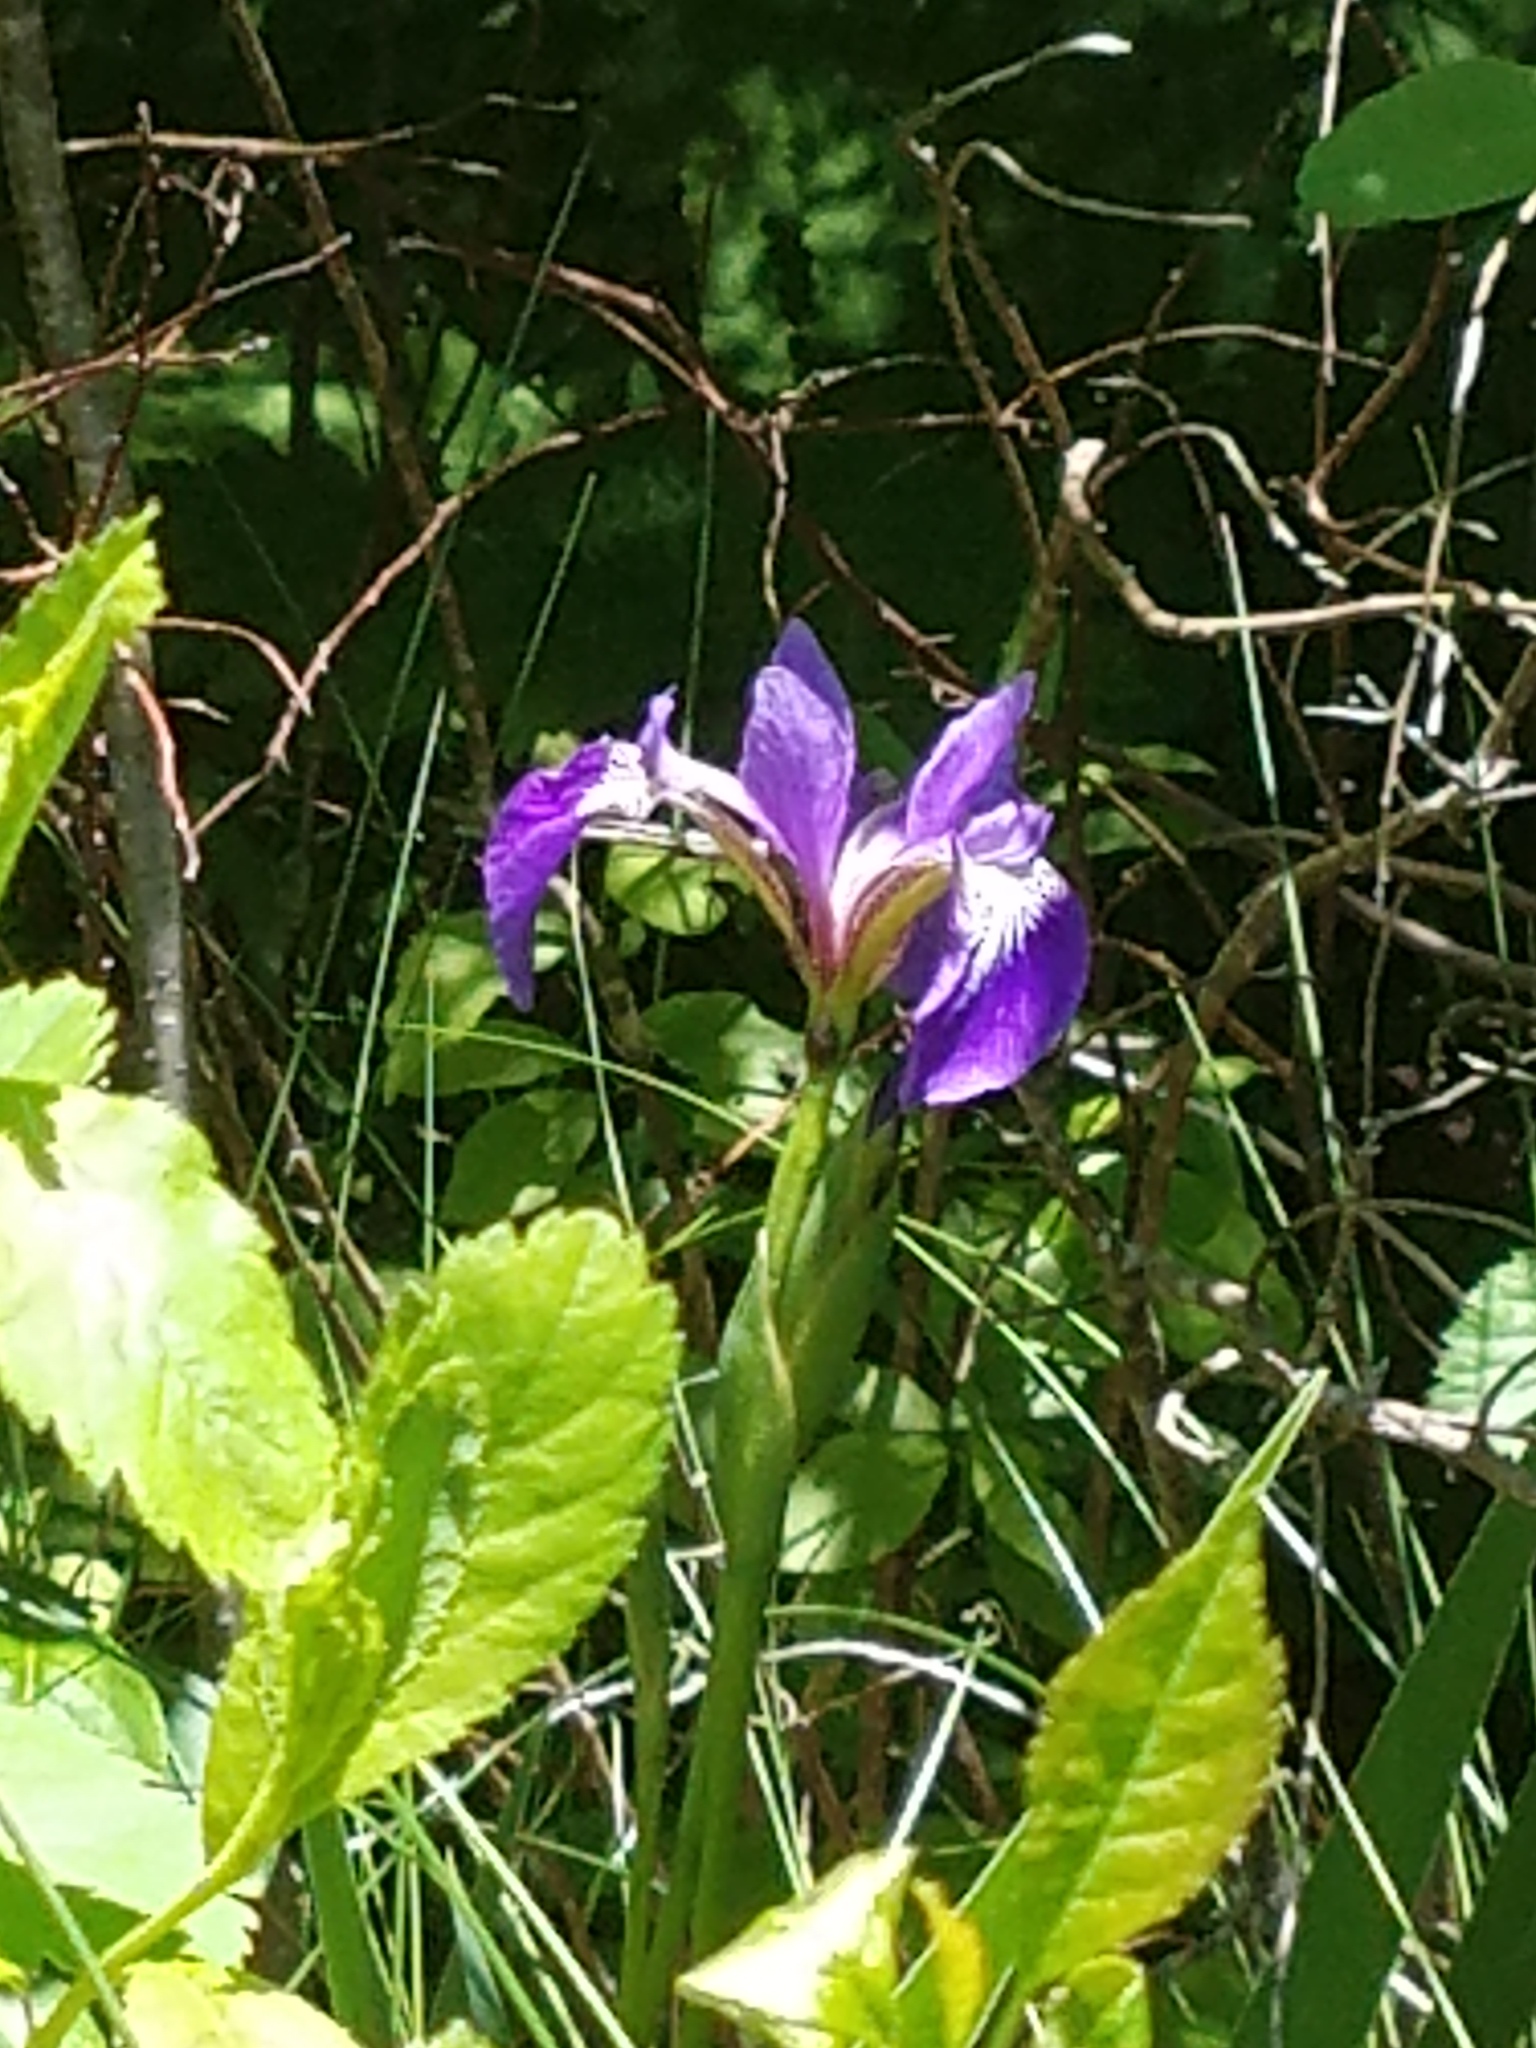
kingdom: Plantae
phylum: Tracheophyta
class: Liliopsida
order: Asparagales
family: Iridaceae
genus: Iris
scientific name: Iris versicolor
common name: Purple iris
